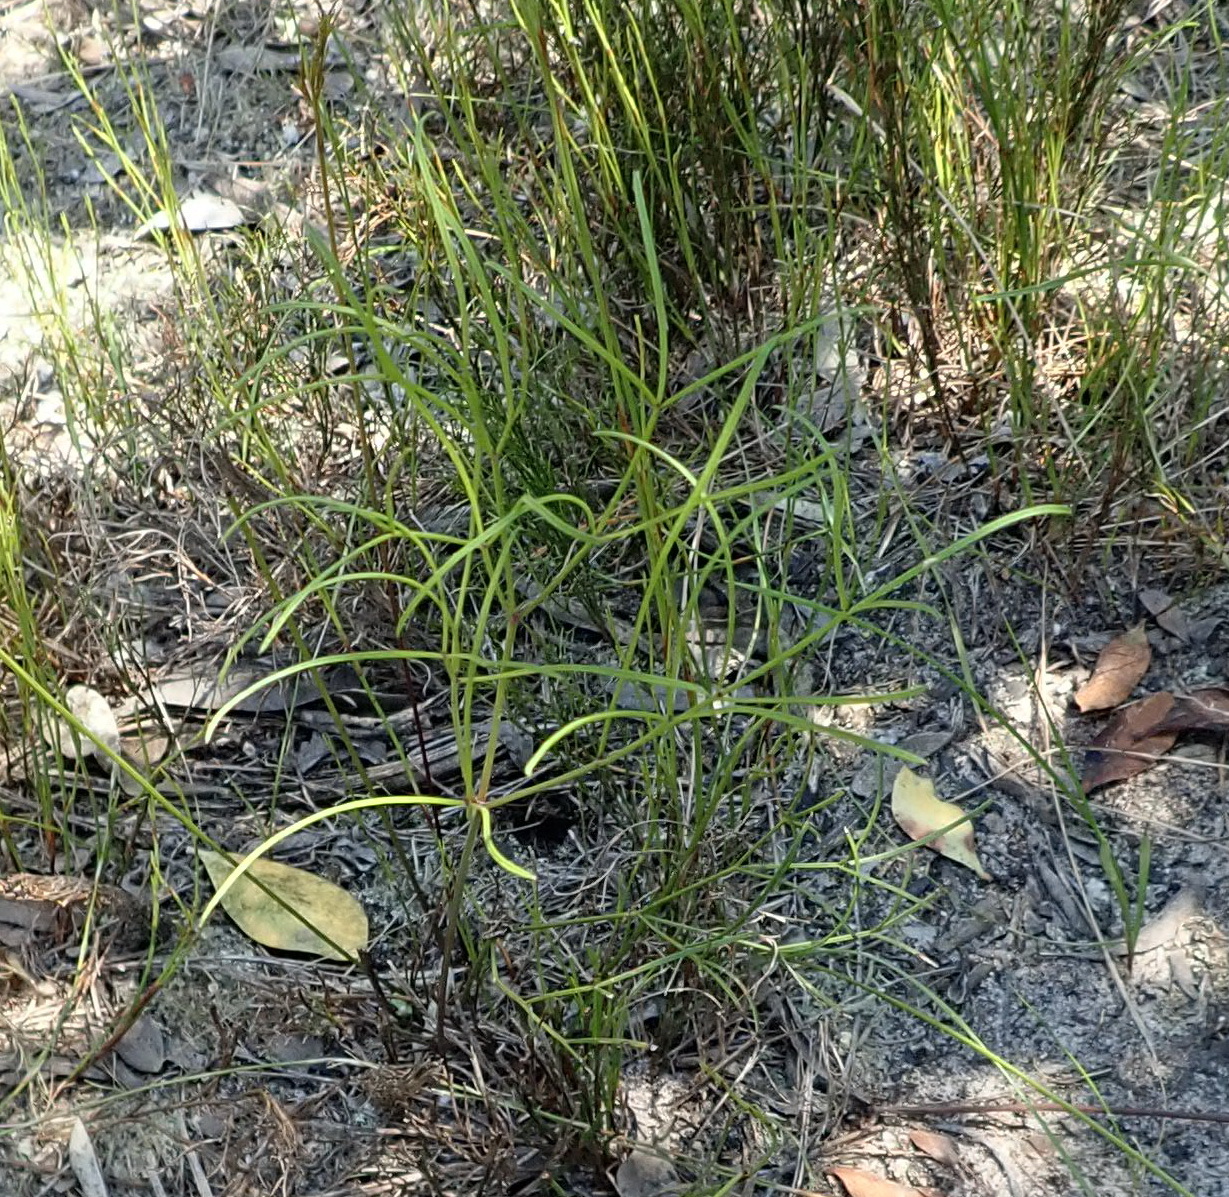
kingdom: Plantae
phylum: Tracheophyta
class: Magnoliopsida
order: Apiales
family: Apiaceae
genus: Nanobubon
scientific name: Nanobubon hypogaeum
